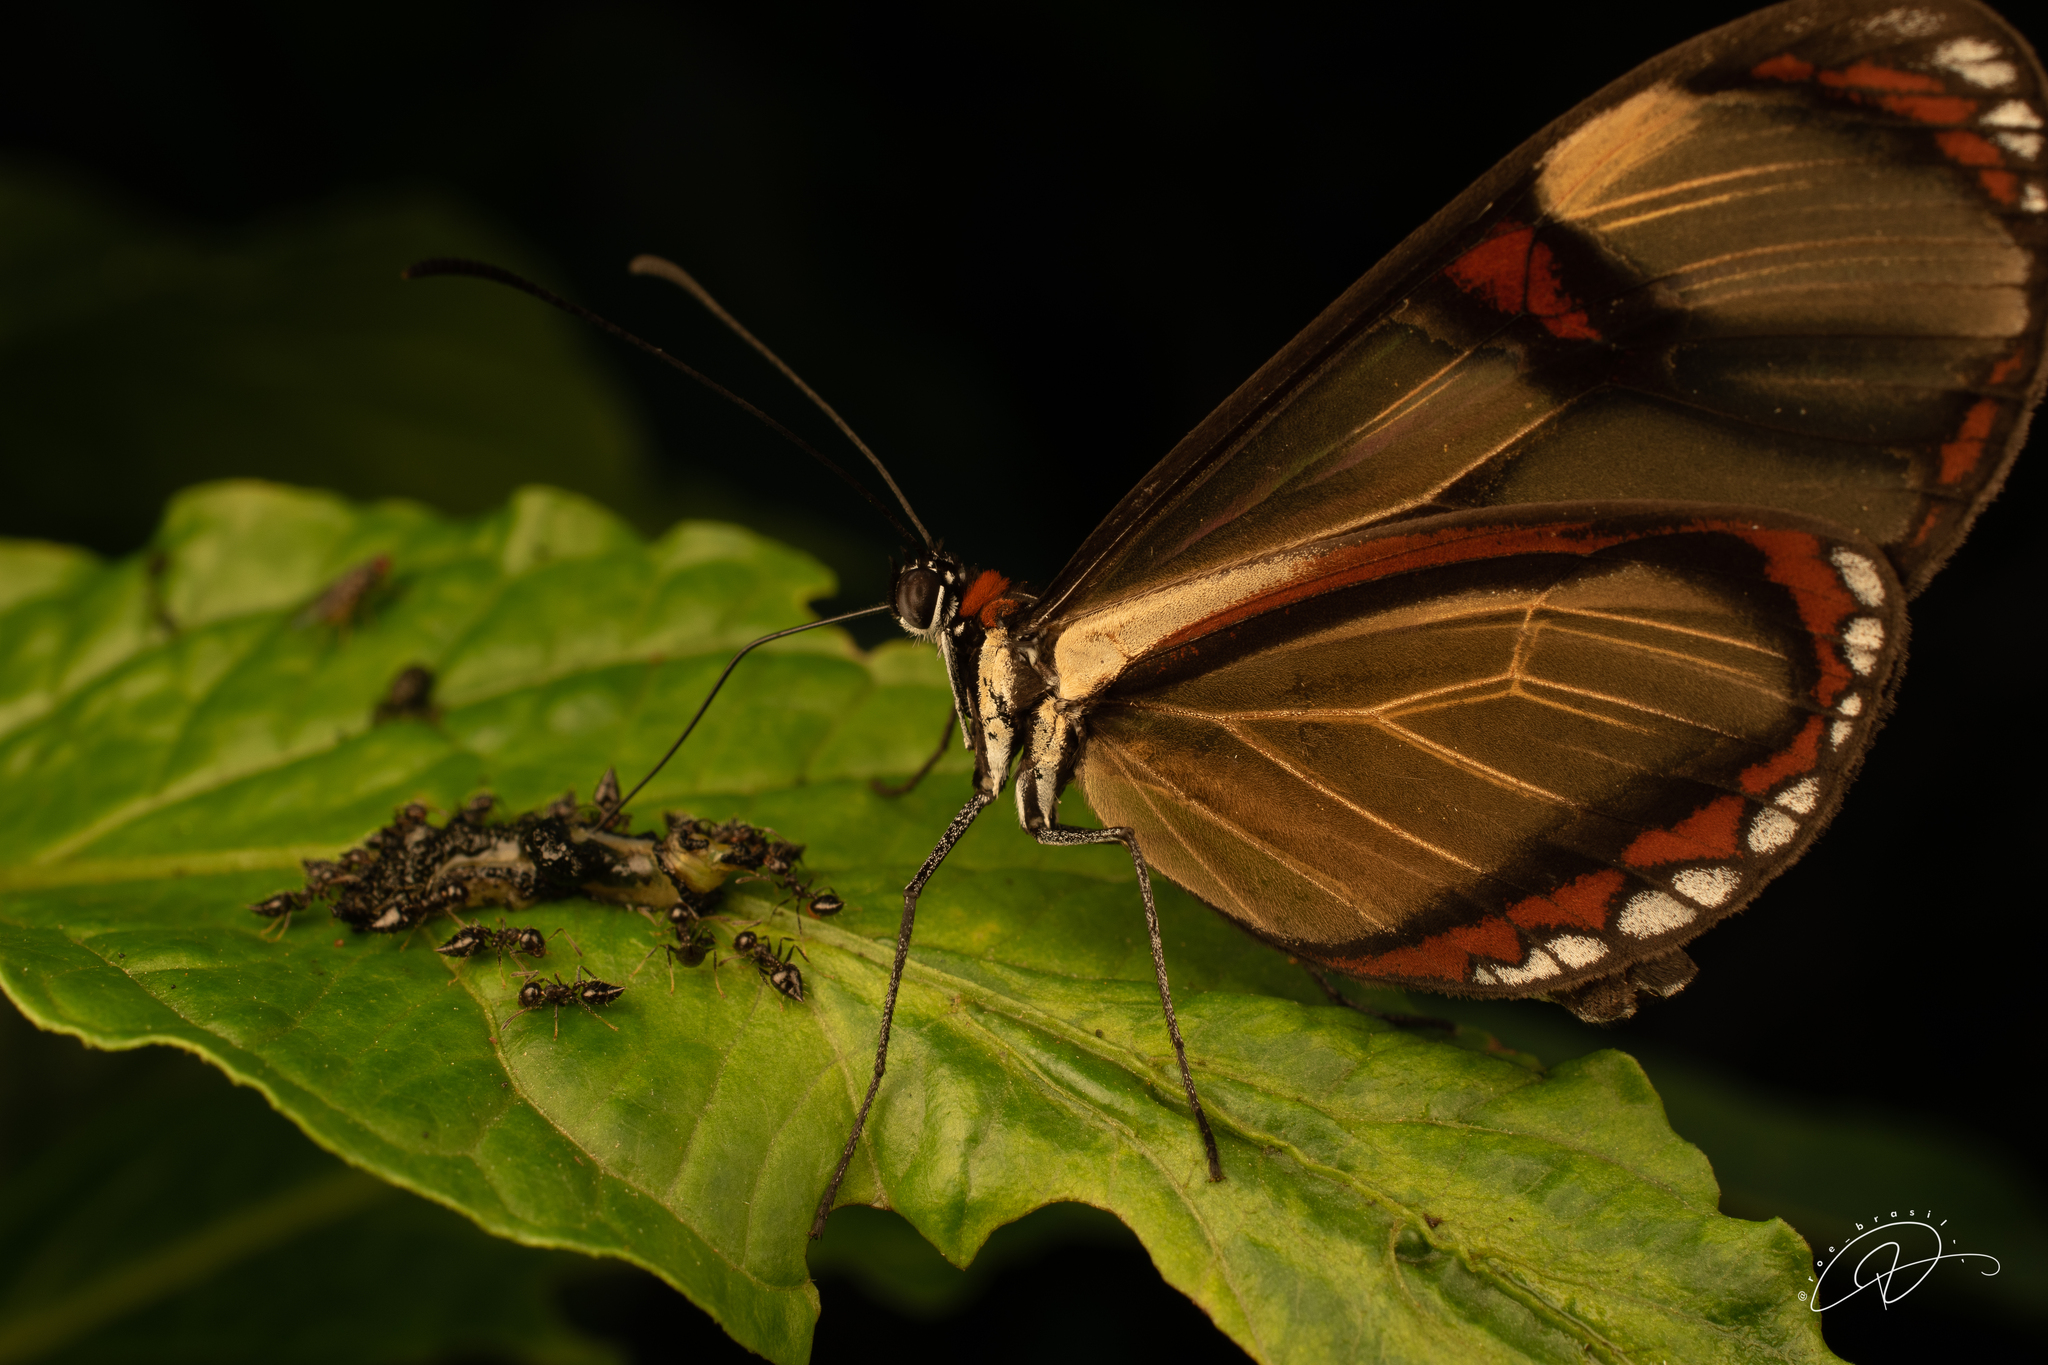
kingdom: Animalia
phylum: Arthropoda
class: Insecta
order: Lepidoptera
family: Nymphalidae
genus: Epityches
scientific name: Epityches eupompe
